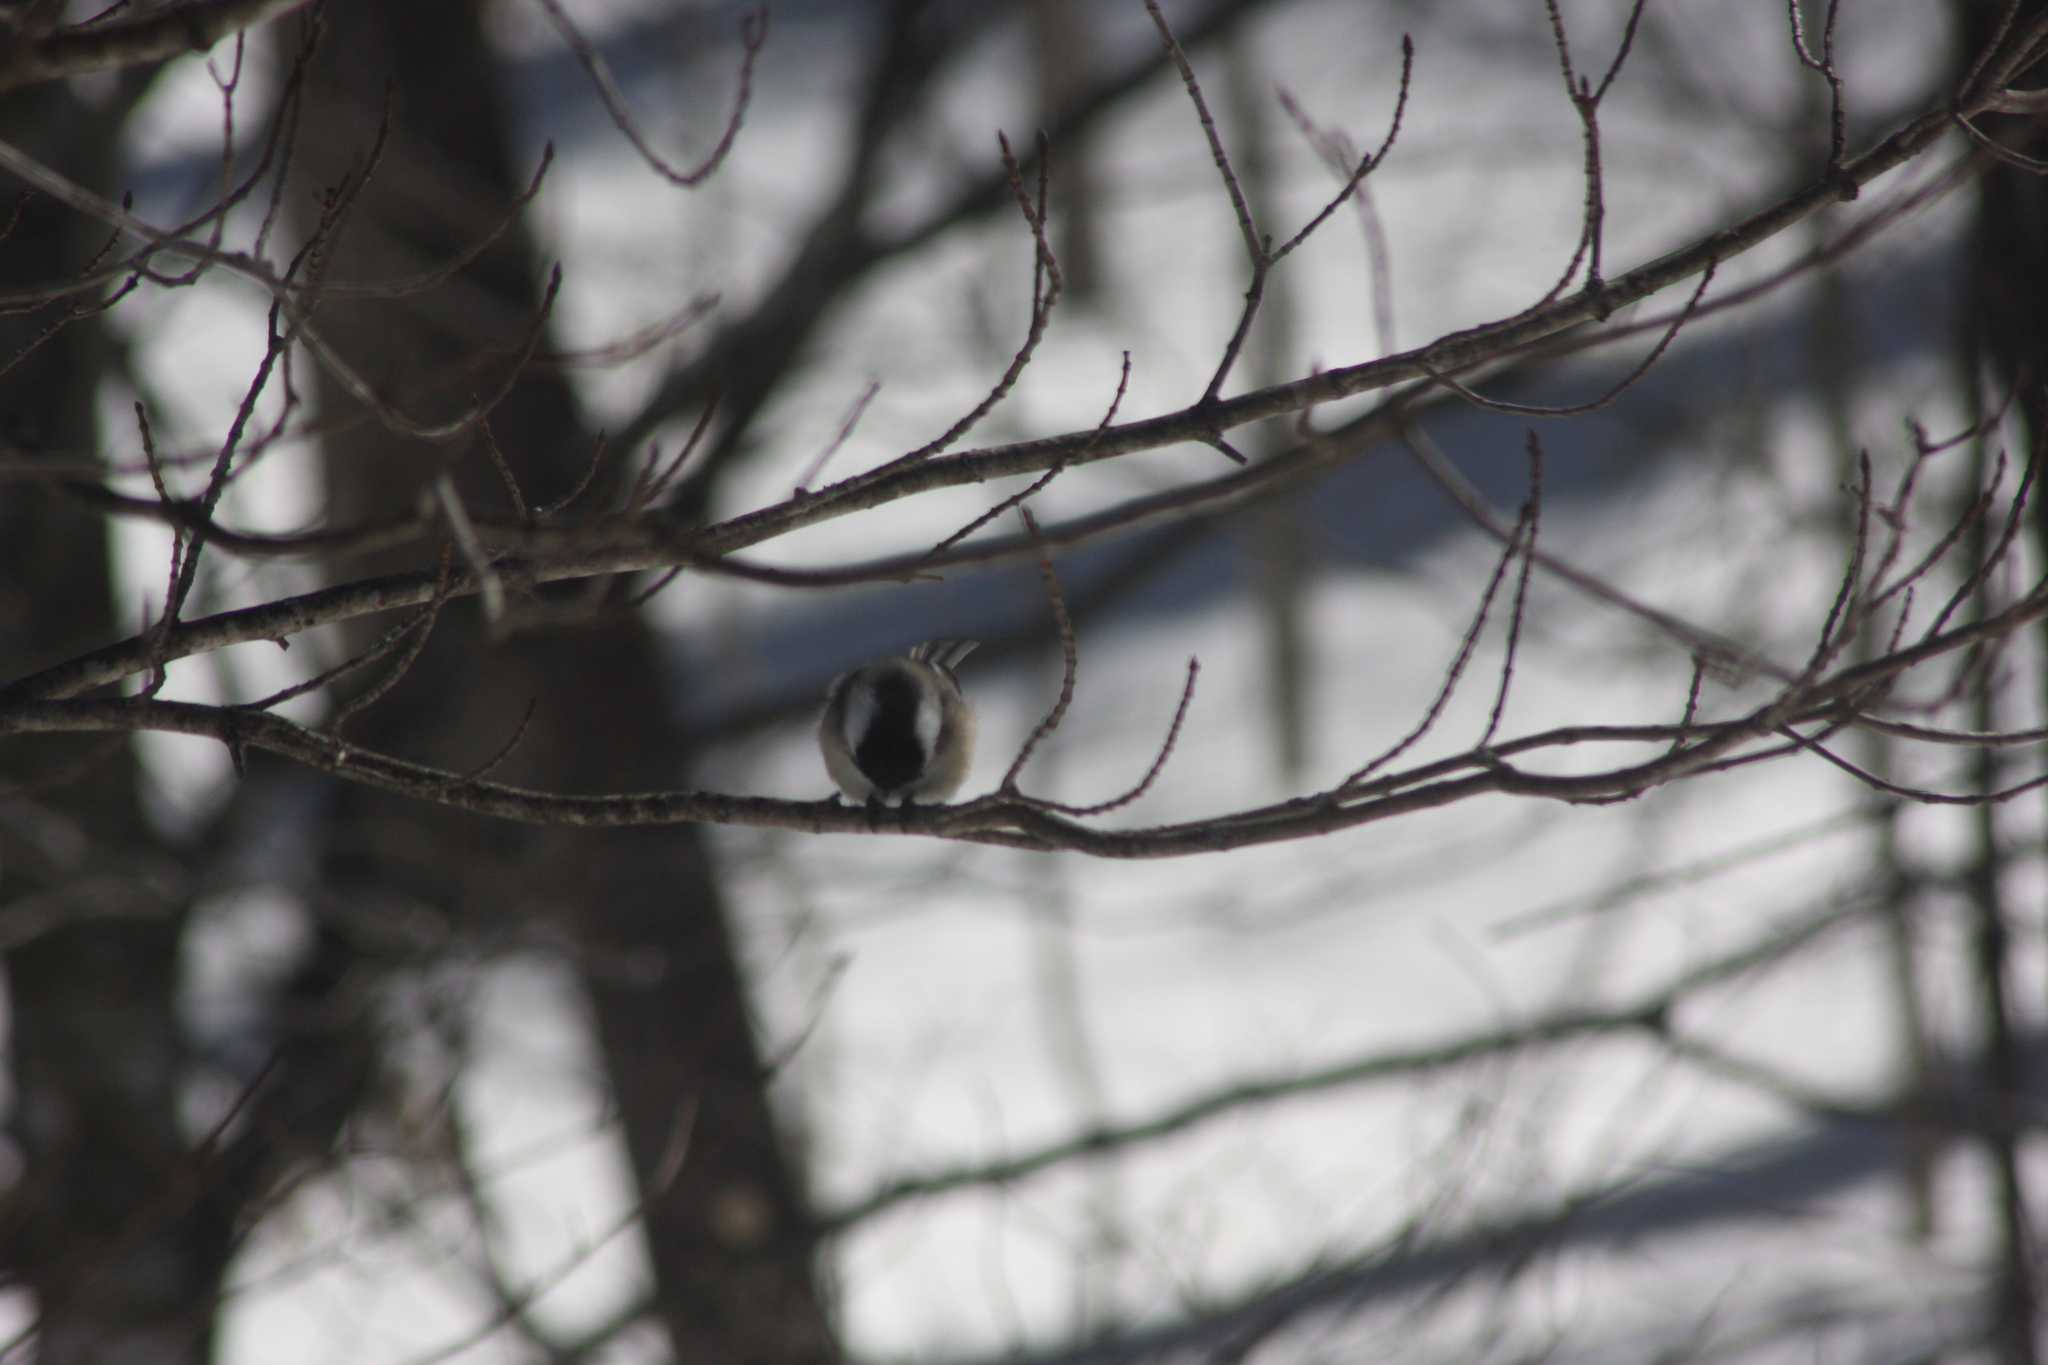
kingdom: Animalia
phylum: Chordata
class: Aves
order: Passeriformes
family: Paridae
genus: Poecile
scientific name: Poecile atricapillus
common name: Black-capped chickadee
